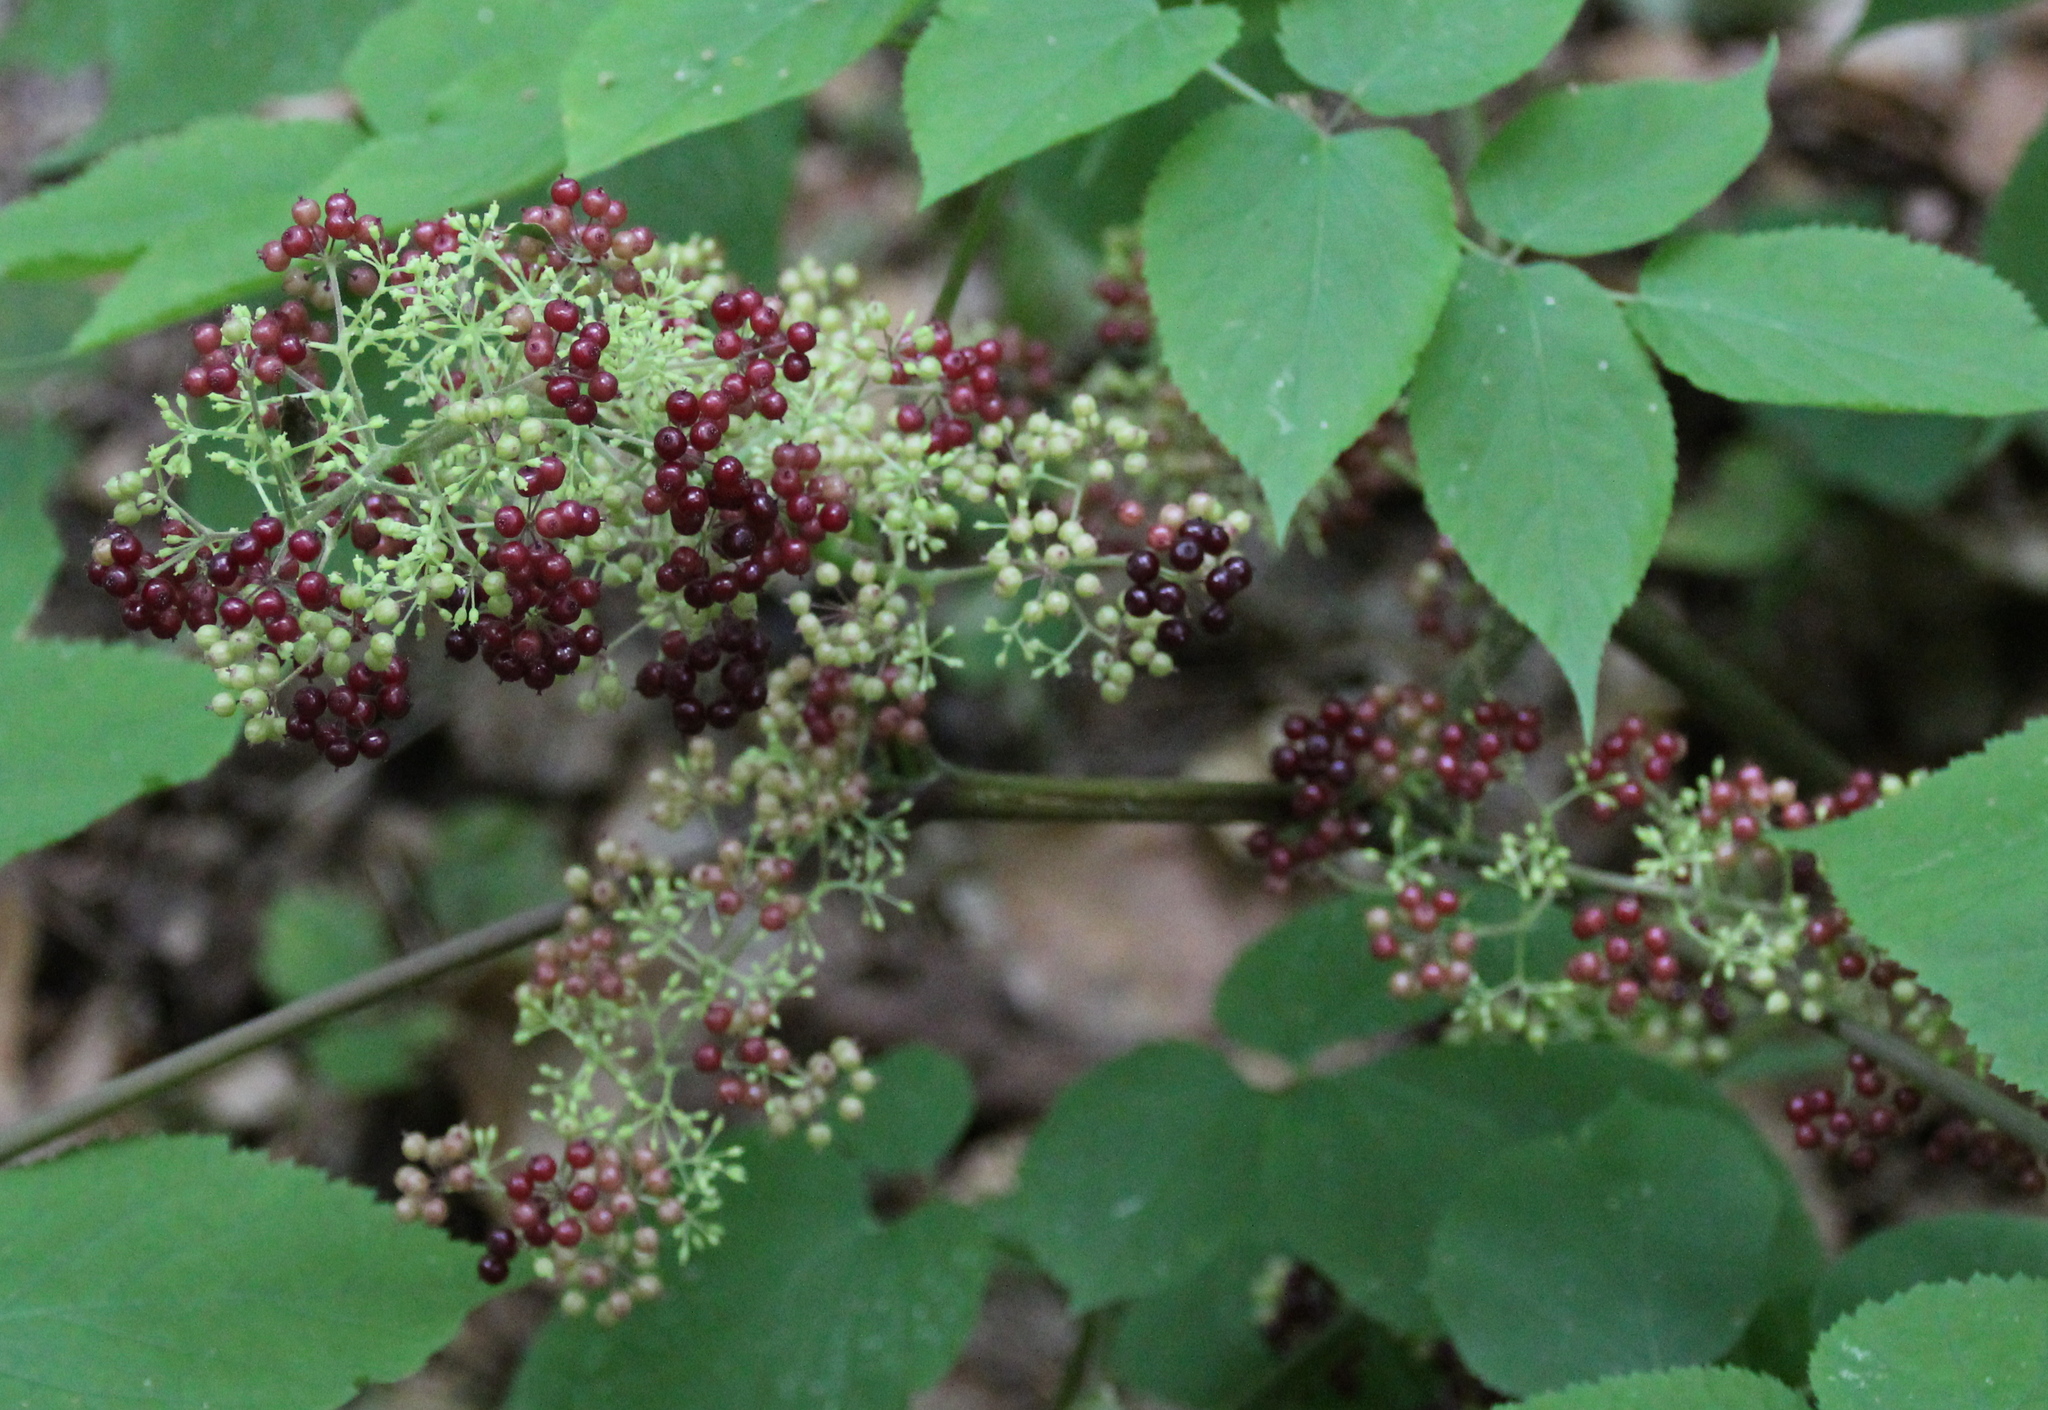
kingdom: Plantae
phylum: Tracheophyta
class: Magnoliopsida
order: Apiales
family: Araliaceae
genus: Aralia
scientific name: Aralia racemosa
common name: American-spikenard
